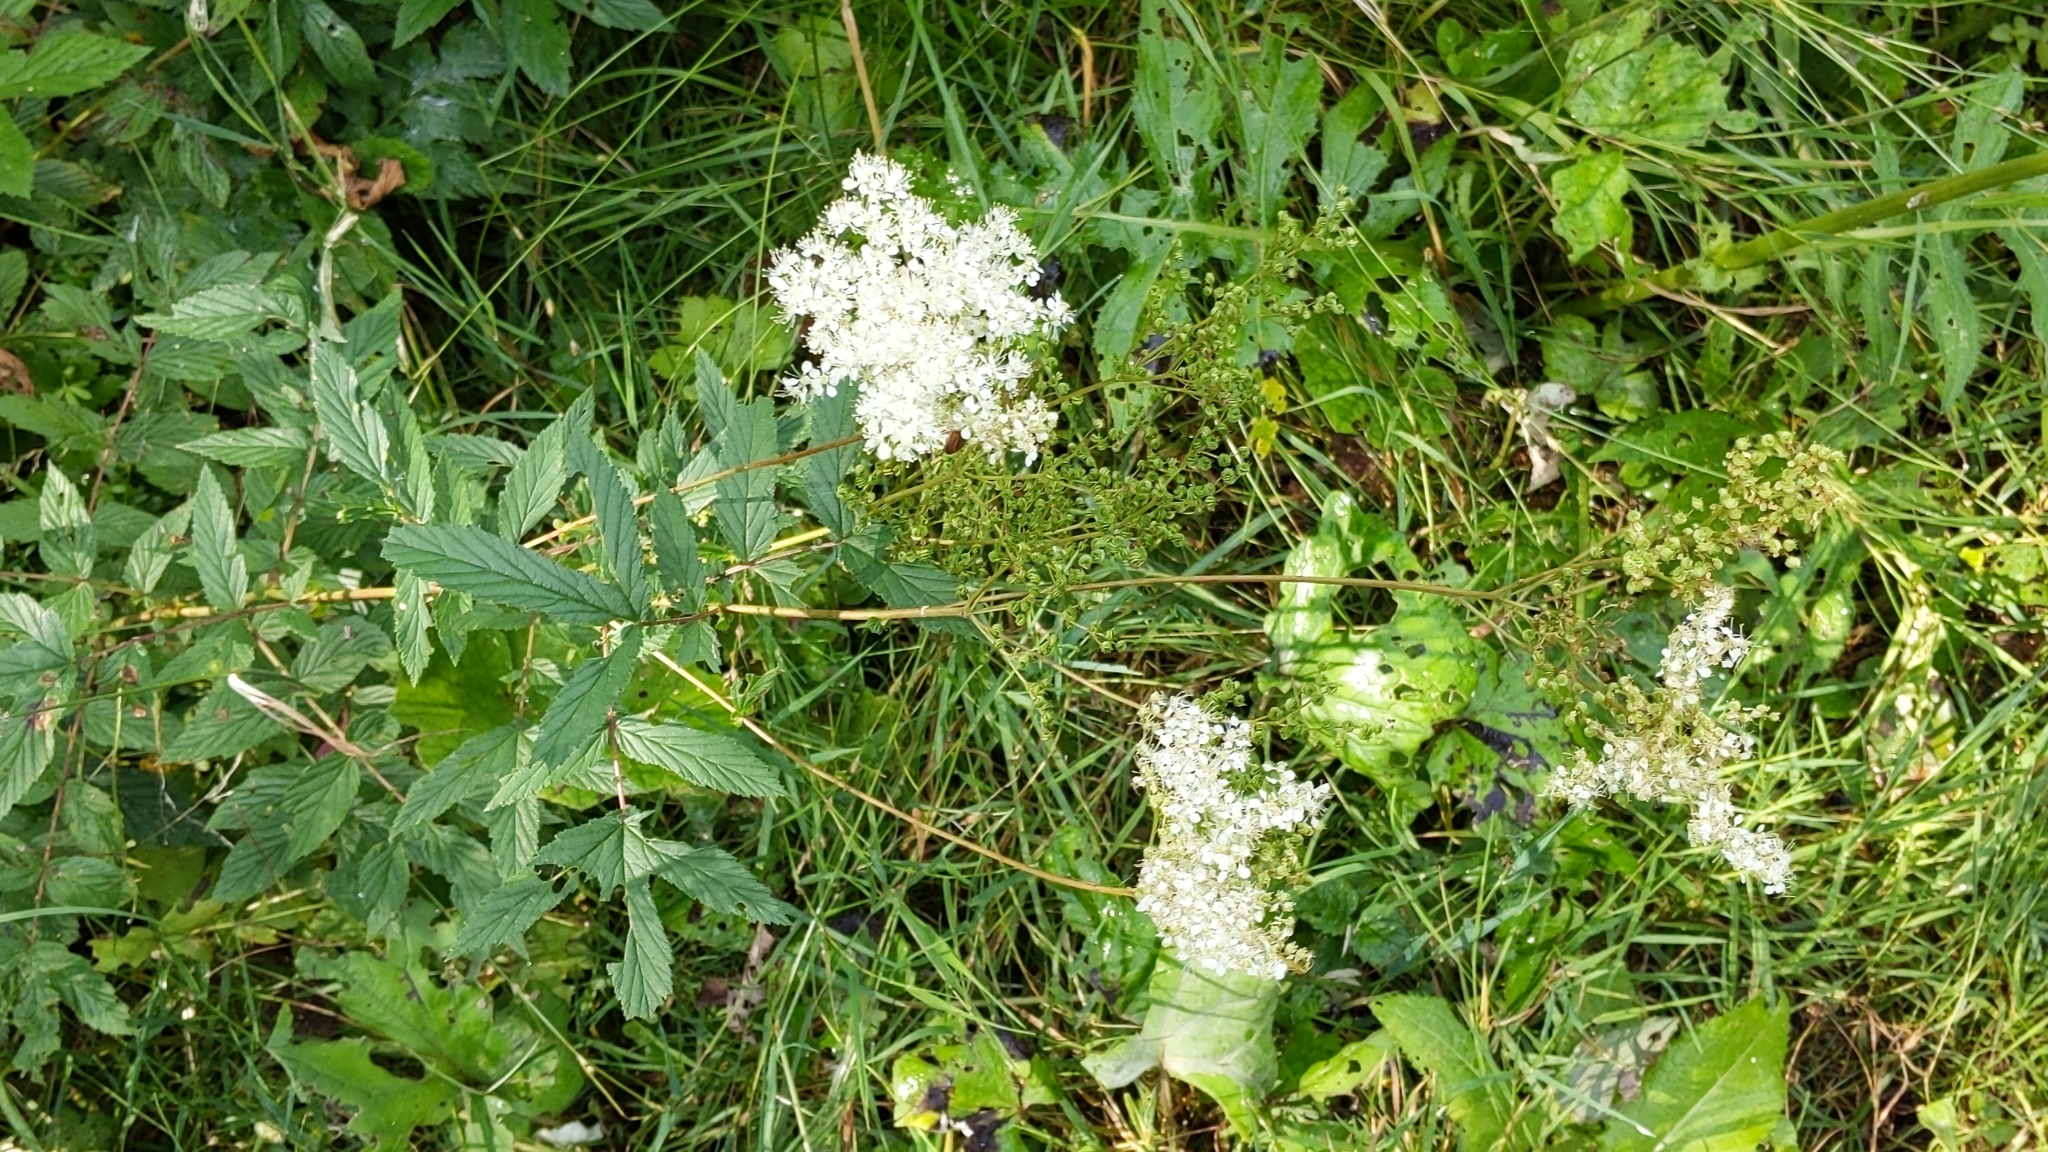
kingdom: Plantae
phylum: Tracheophyta
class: Magnoliopsida
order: Rosales
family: Rosaceae
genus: Filipendula
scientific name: Filipendula ulmaria
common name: Meadowsweet
